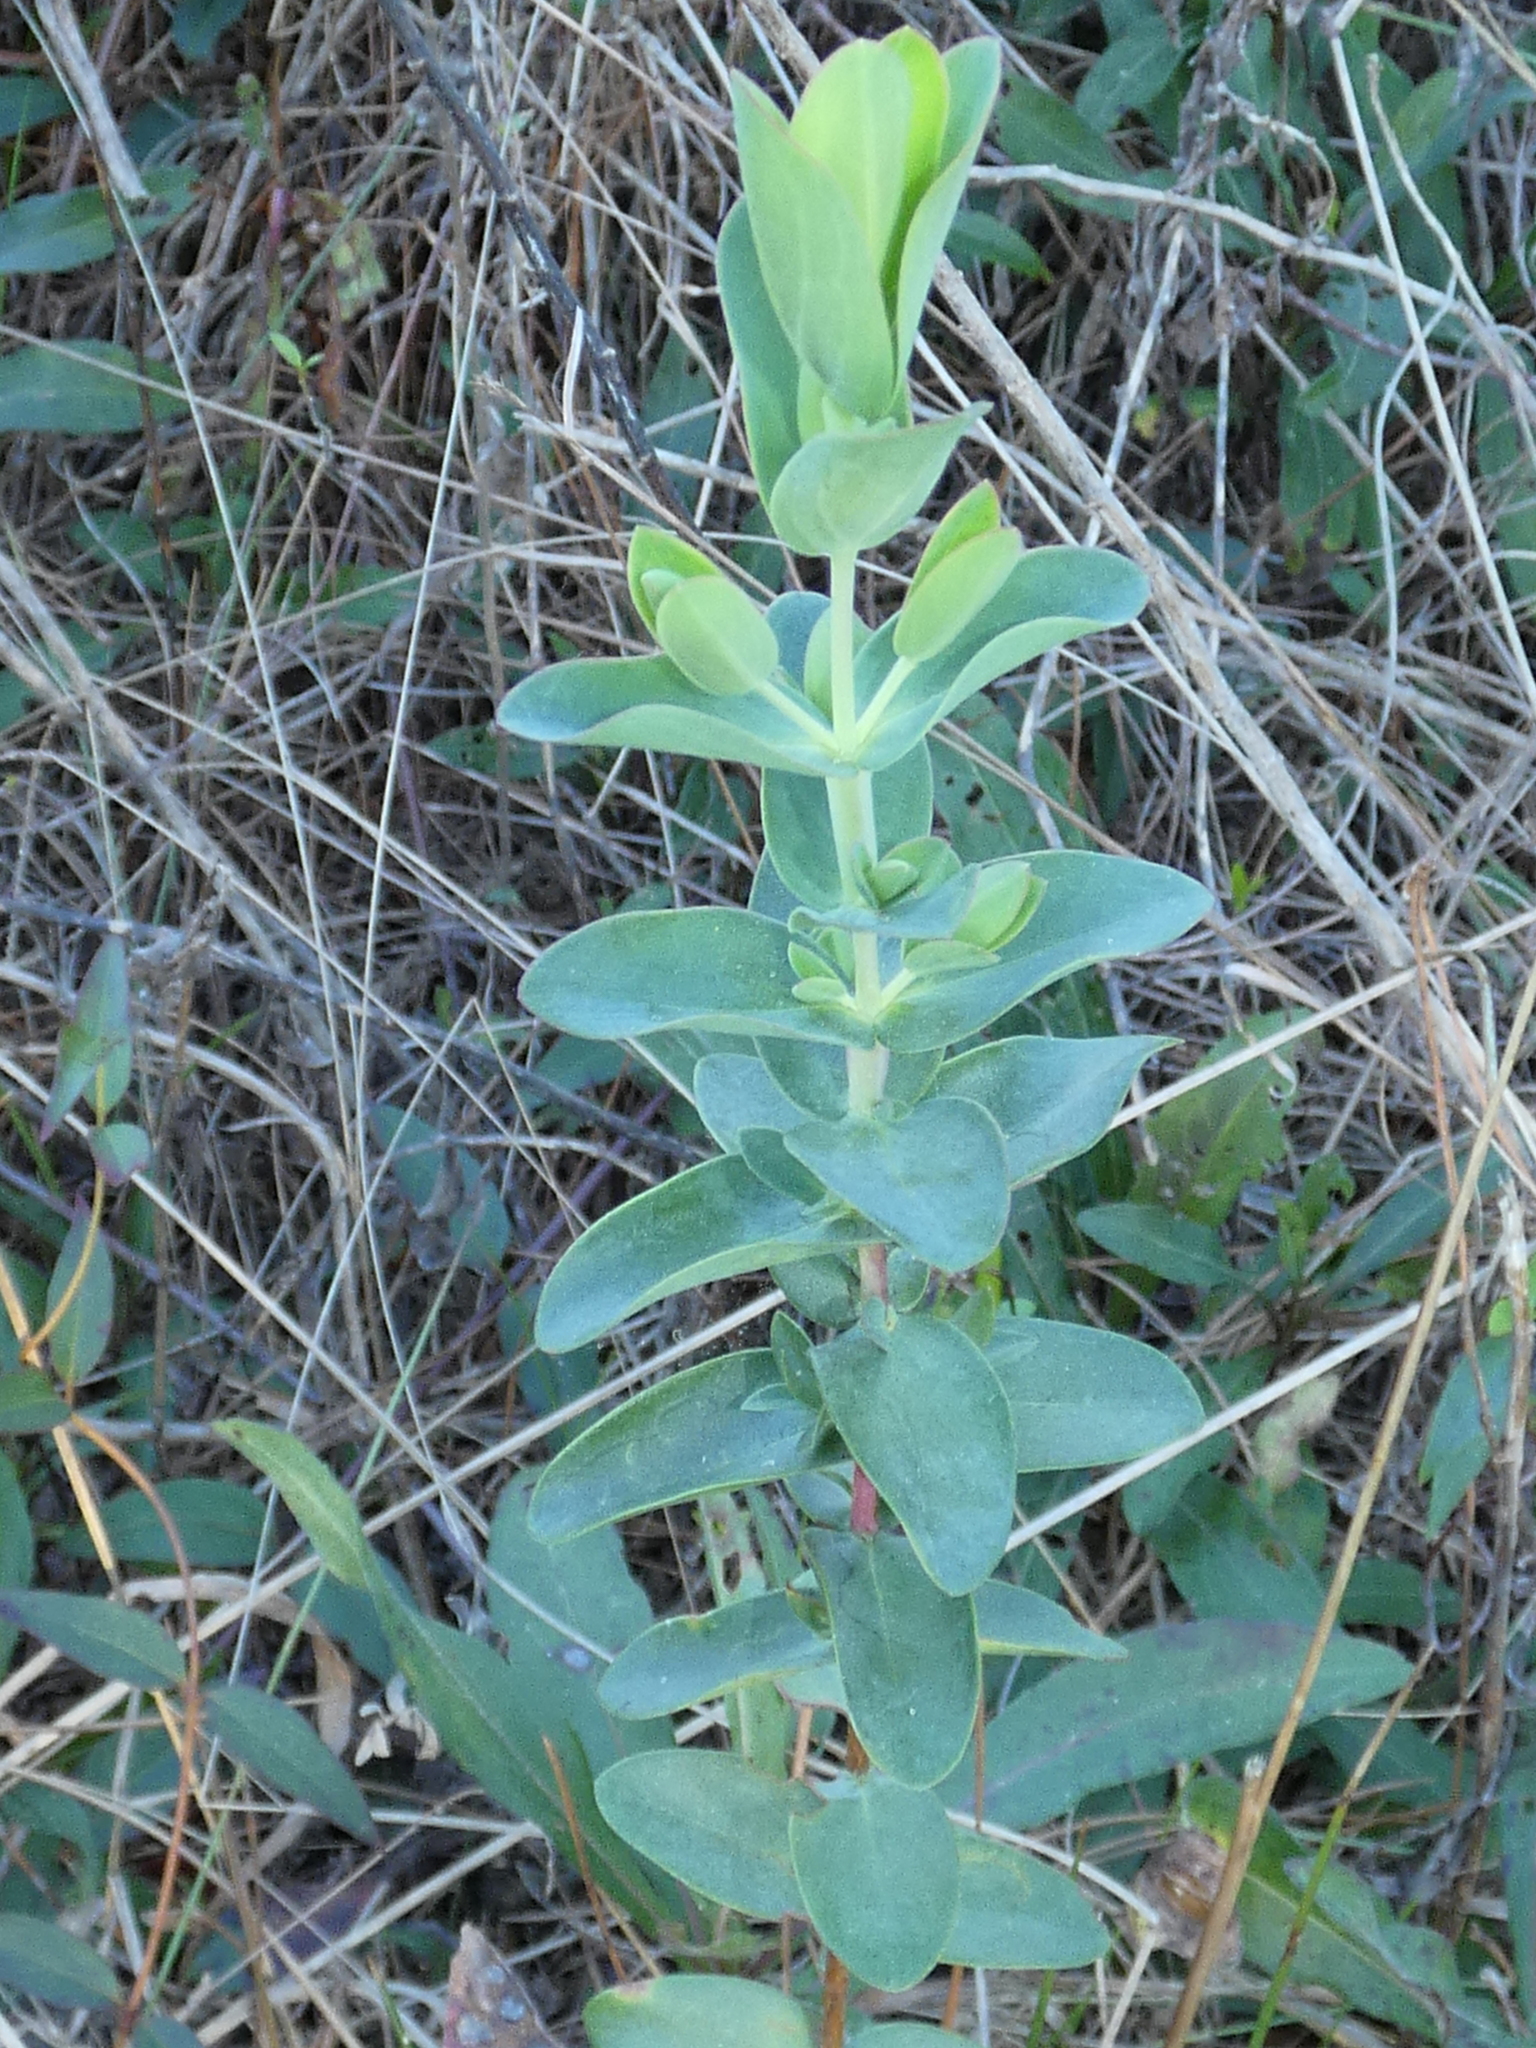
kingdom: Plantae
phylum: Tracheophyta
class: Magnoliopsida
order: Malpighiales
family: Hypericaceae
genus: Hypericum
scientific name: Hypericum tetrapetalum
